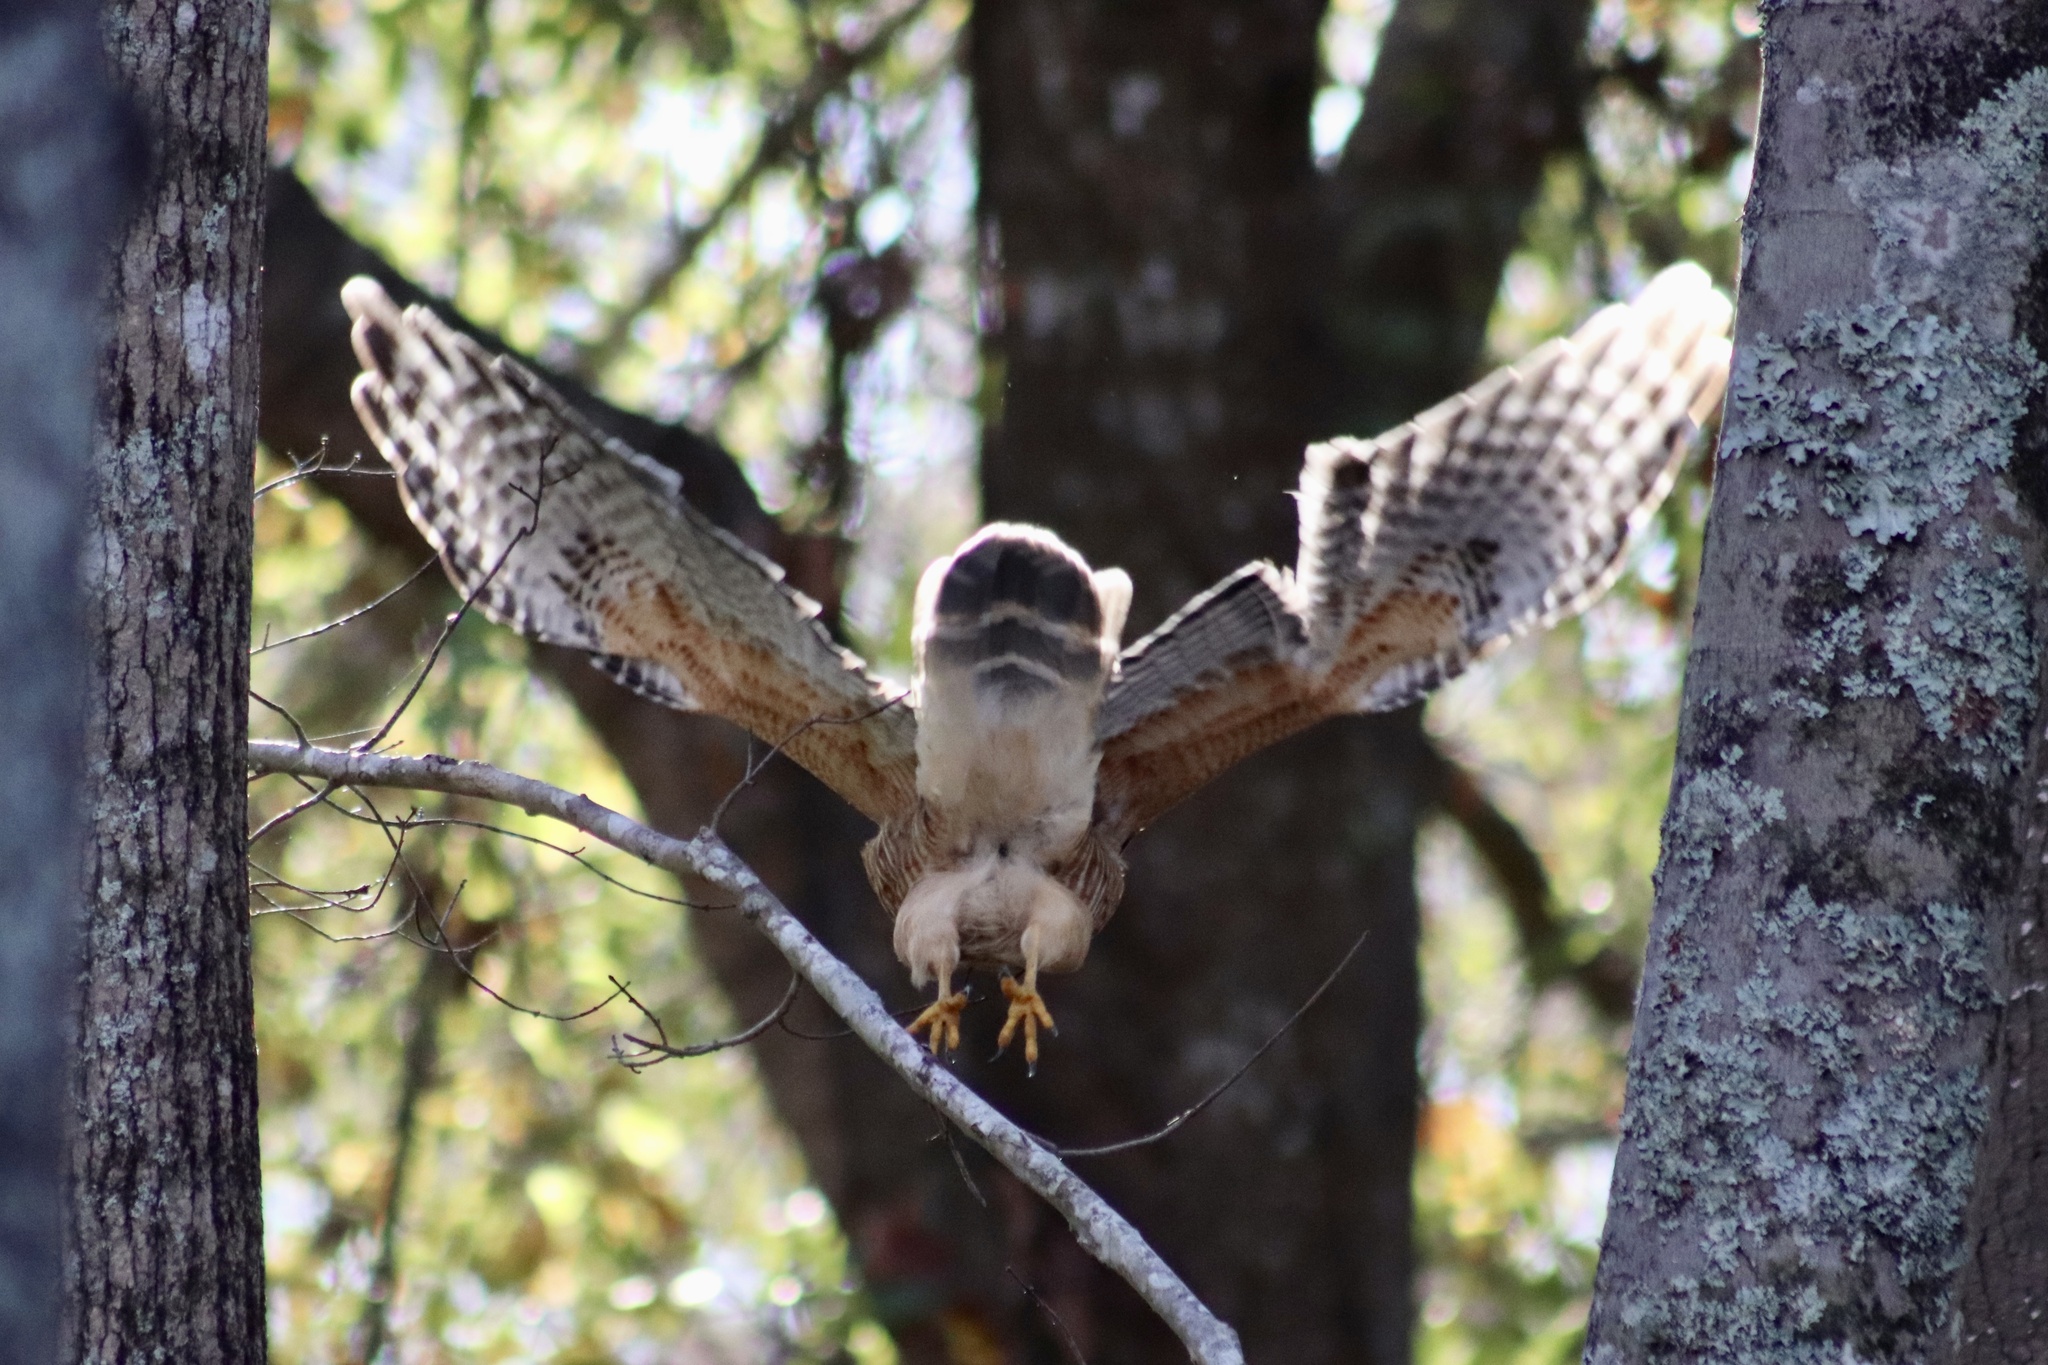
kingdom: Animalia
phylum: Chordata
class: Aves
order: Accipitriformes
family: Accipitridae
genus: Buteo
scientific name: Buteo lineatus
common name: Red-shouldered hawk
